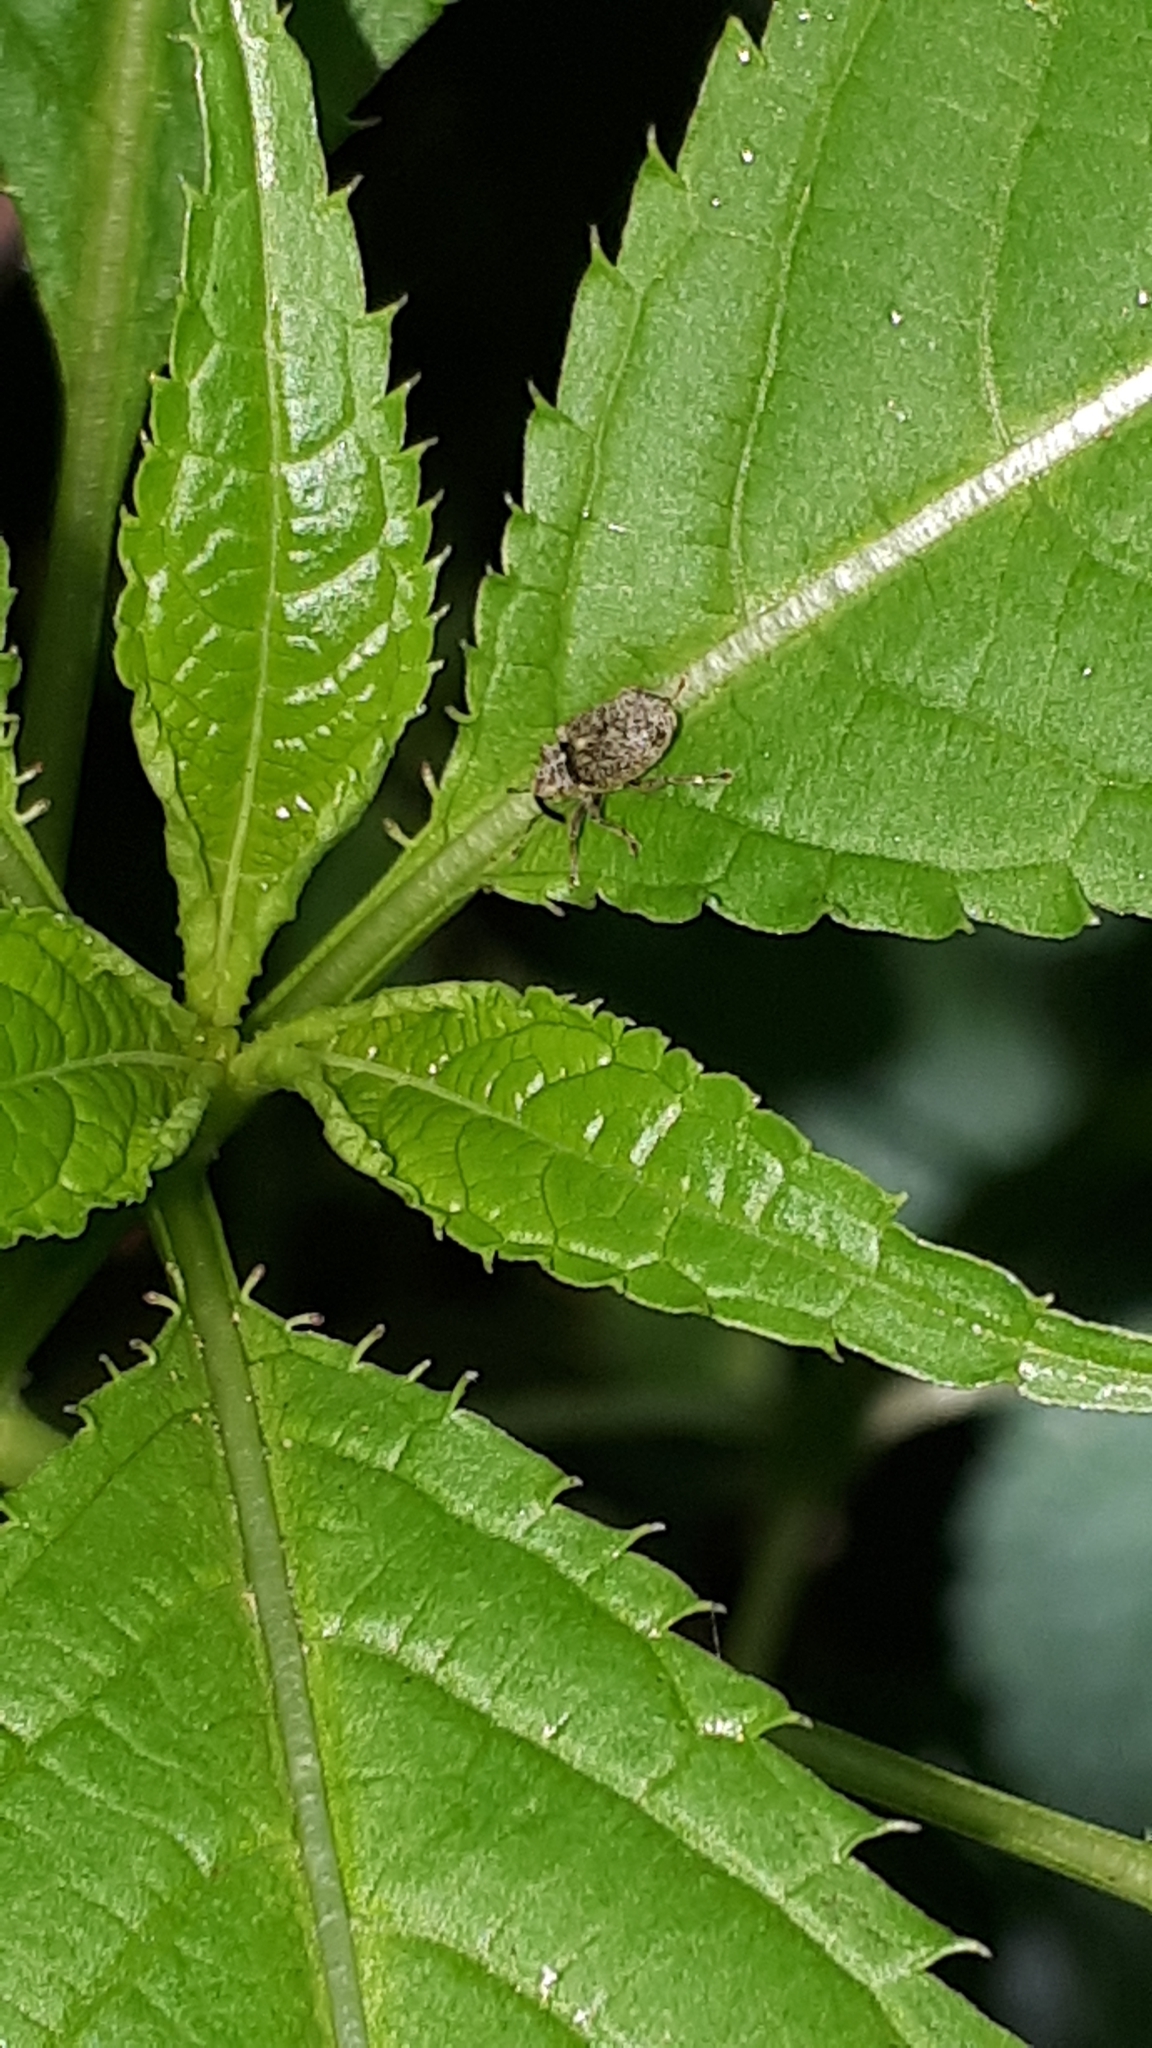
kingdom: Animalia
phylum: Arthropoda
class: Insecta
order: Coleoptera
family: Curculionidae
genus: Ceutorhynchus
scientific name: Ceutorhynchus pallidactylus
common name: Cabbage stem weavil
